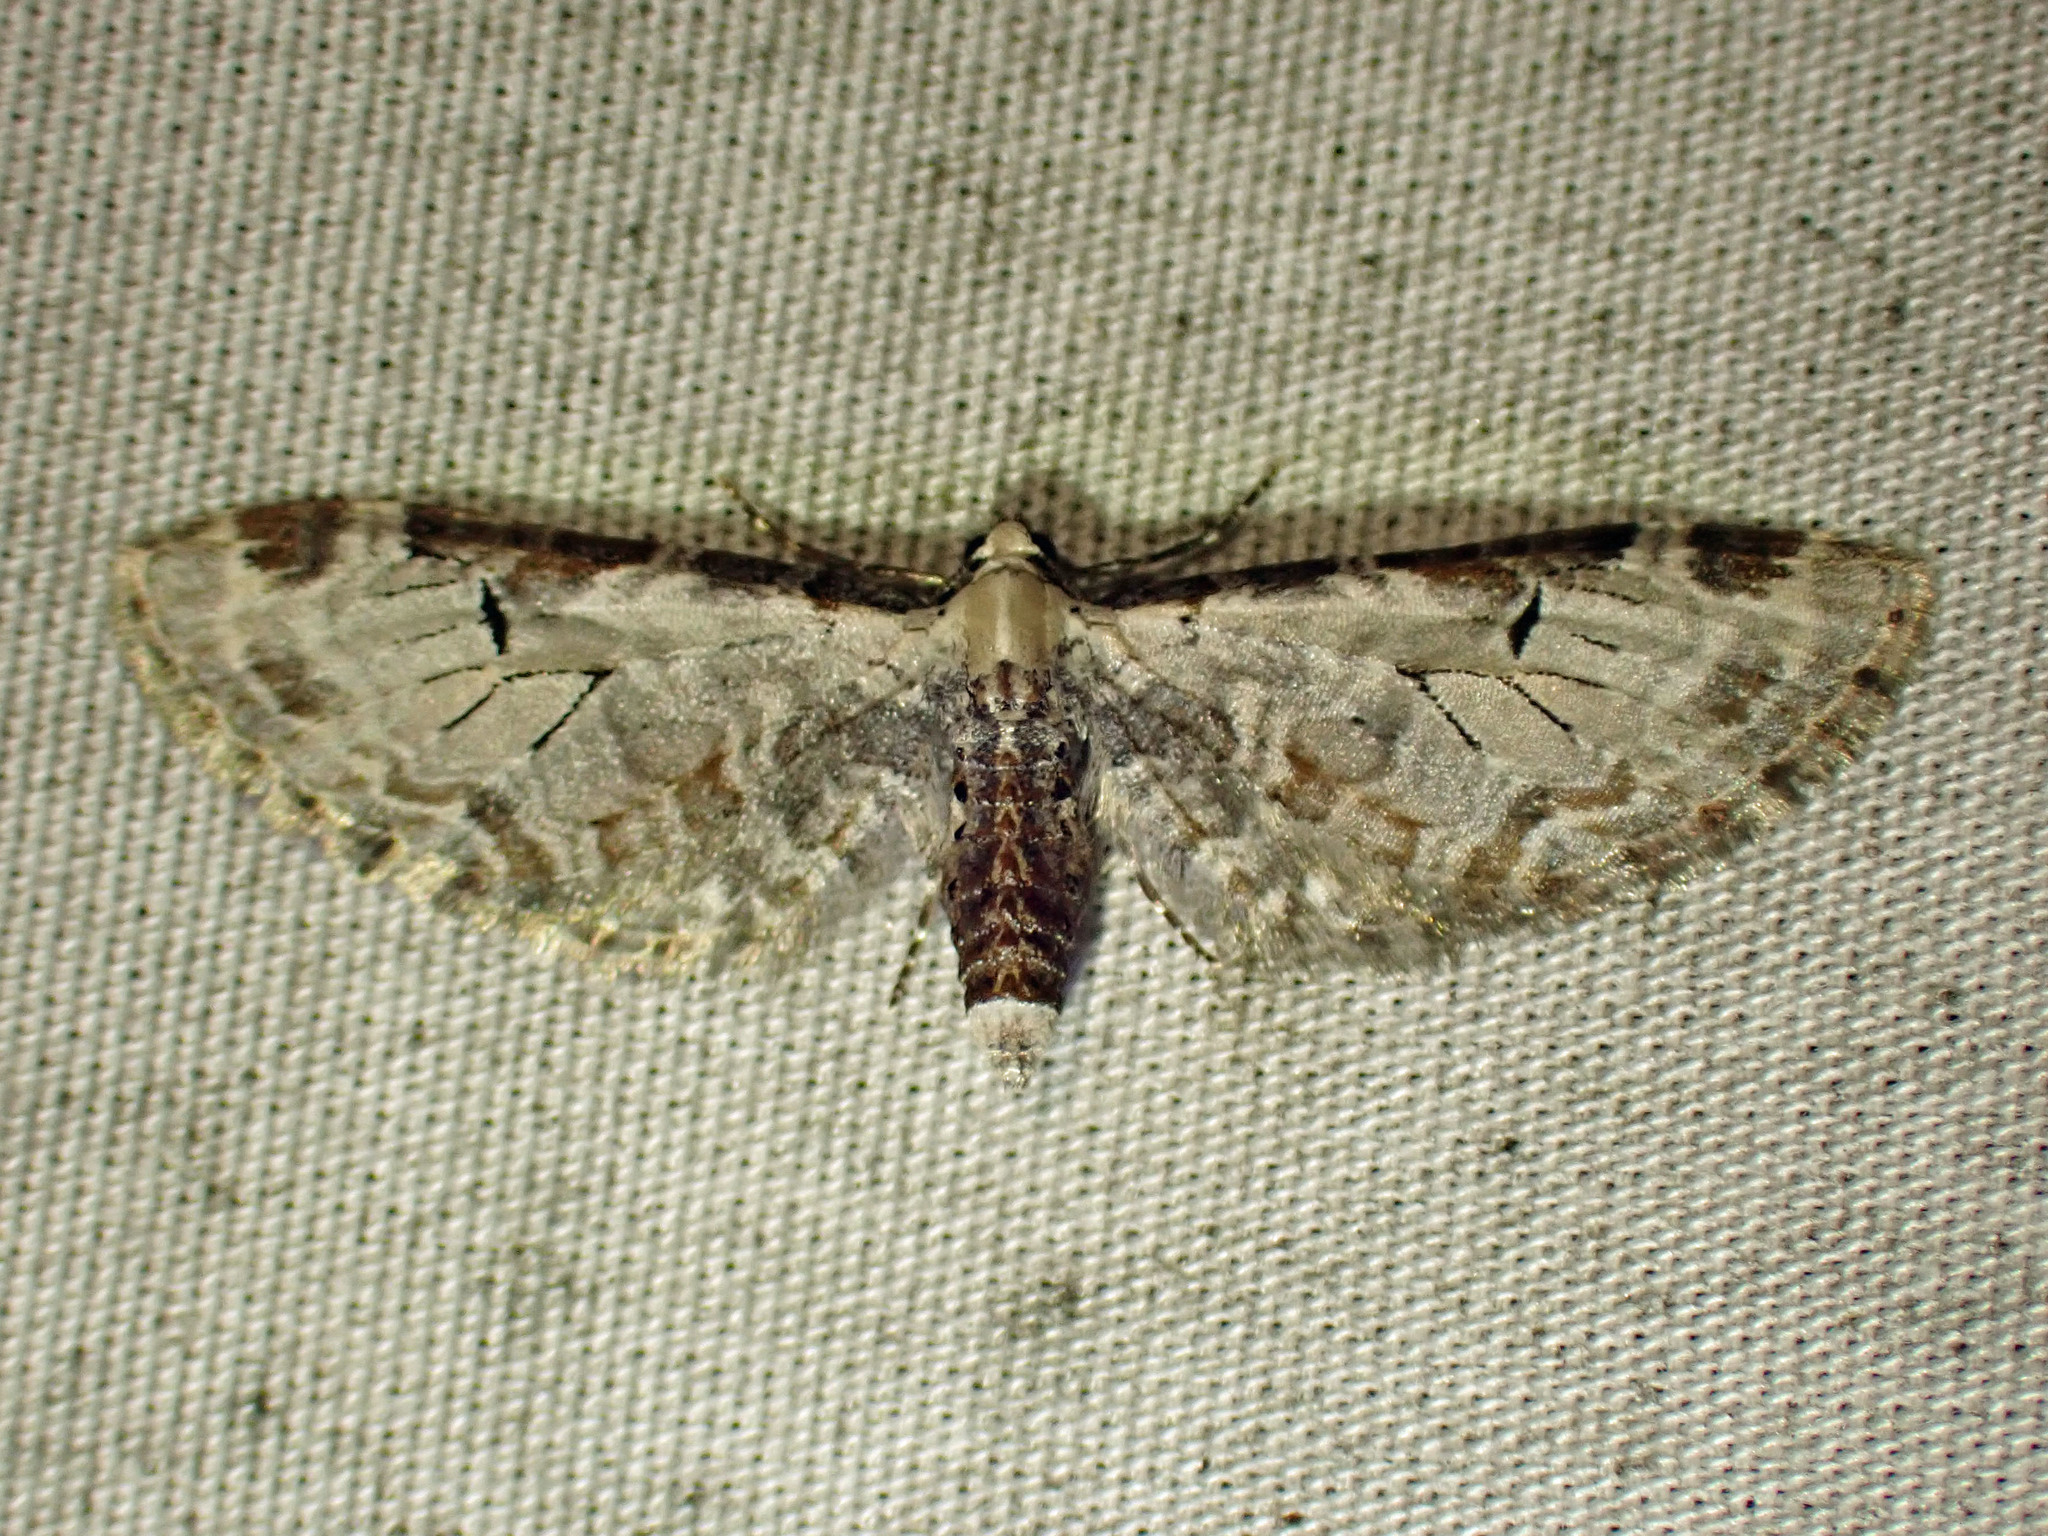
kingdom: Animalia
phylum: Arthropoda
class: Insecta
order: Lepidoptera
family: Geometridae
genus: Eupithecia
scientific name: Eupithecia ravocostaliata
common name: Great varigated pug
